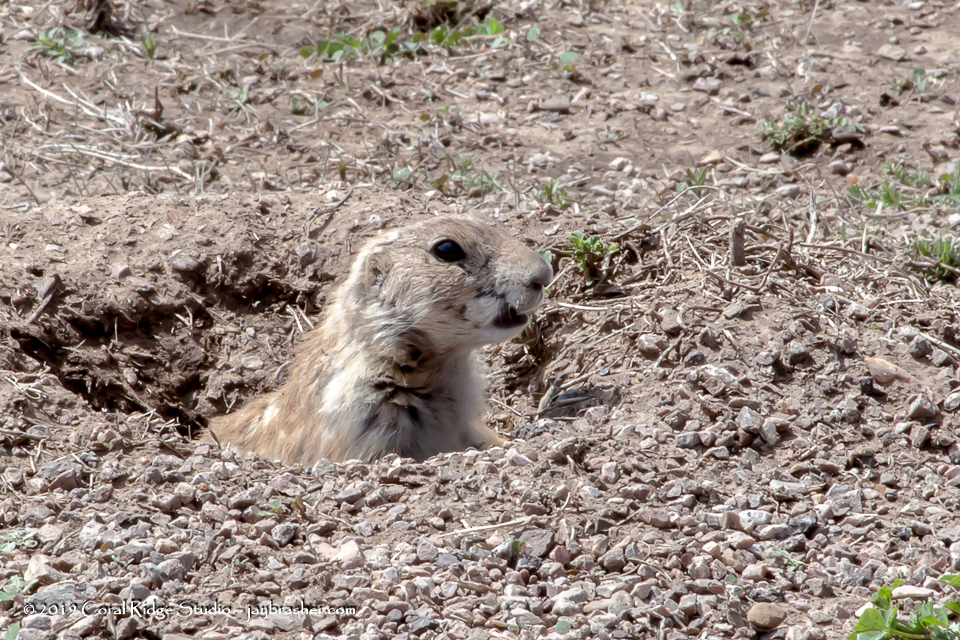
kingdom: Animalia
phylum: Chordata
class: Mammalia
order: Rodentia
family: Sciuridae
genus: Cynomys
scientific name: Cynomys ludovicianus
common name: Black-tailed prairie dog
